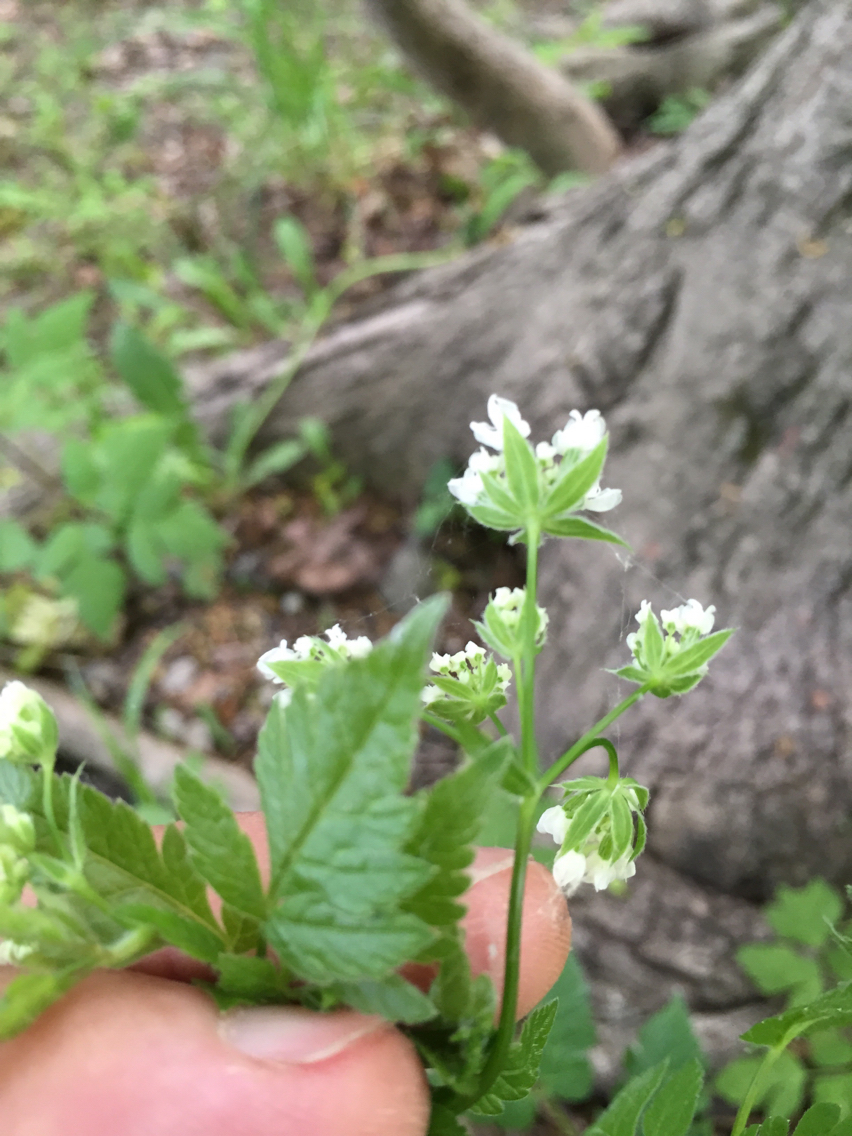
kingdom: Plantae
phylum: Tracheophyta
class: Magnoliopsida
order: Apiales
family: Apiaceae
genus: Osmorhiza
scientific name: Osmorhiza longistylis
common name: Smooth sweet cicely
